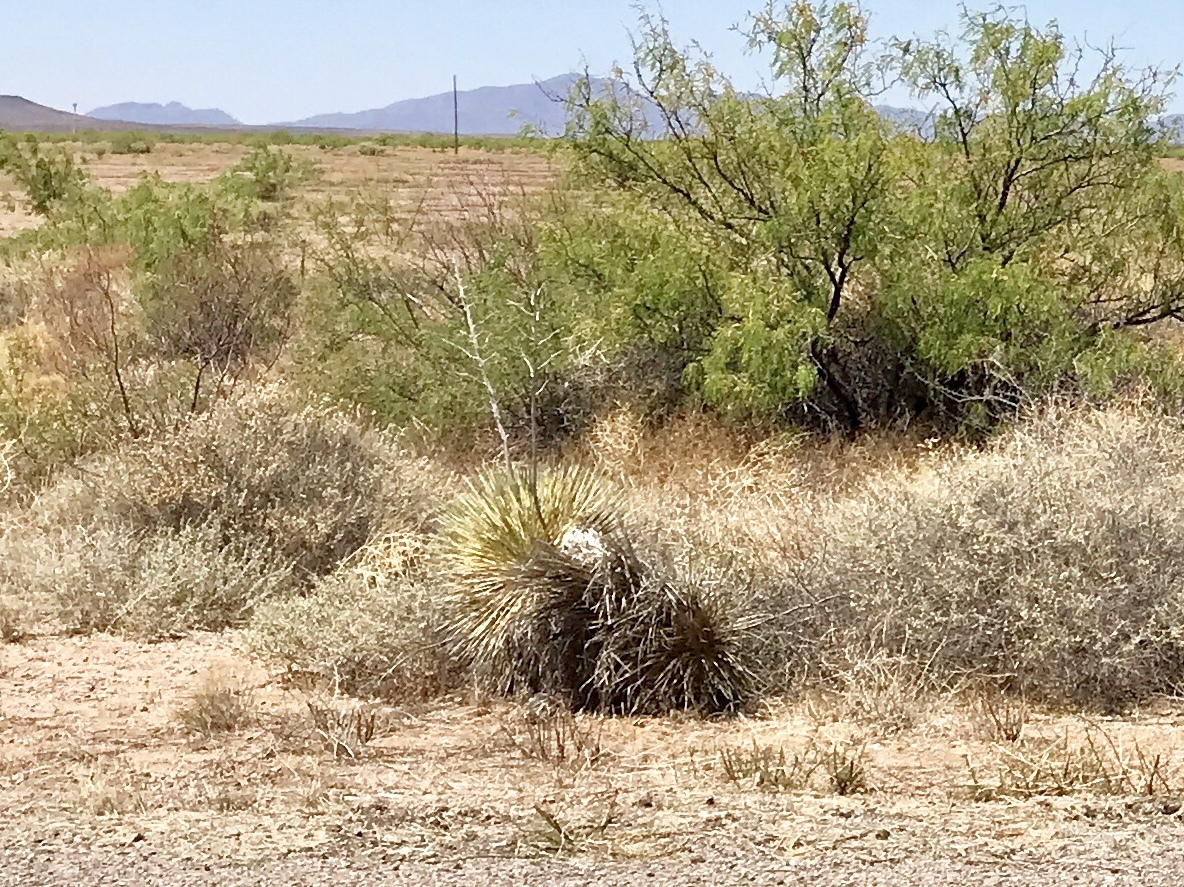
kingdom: Plantae
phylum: Tracheophyta
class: Liliopsida
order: Asparagales
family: Asparagaceae
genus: Yucca
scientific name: Yucca elata
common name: Palmella
